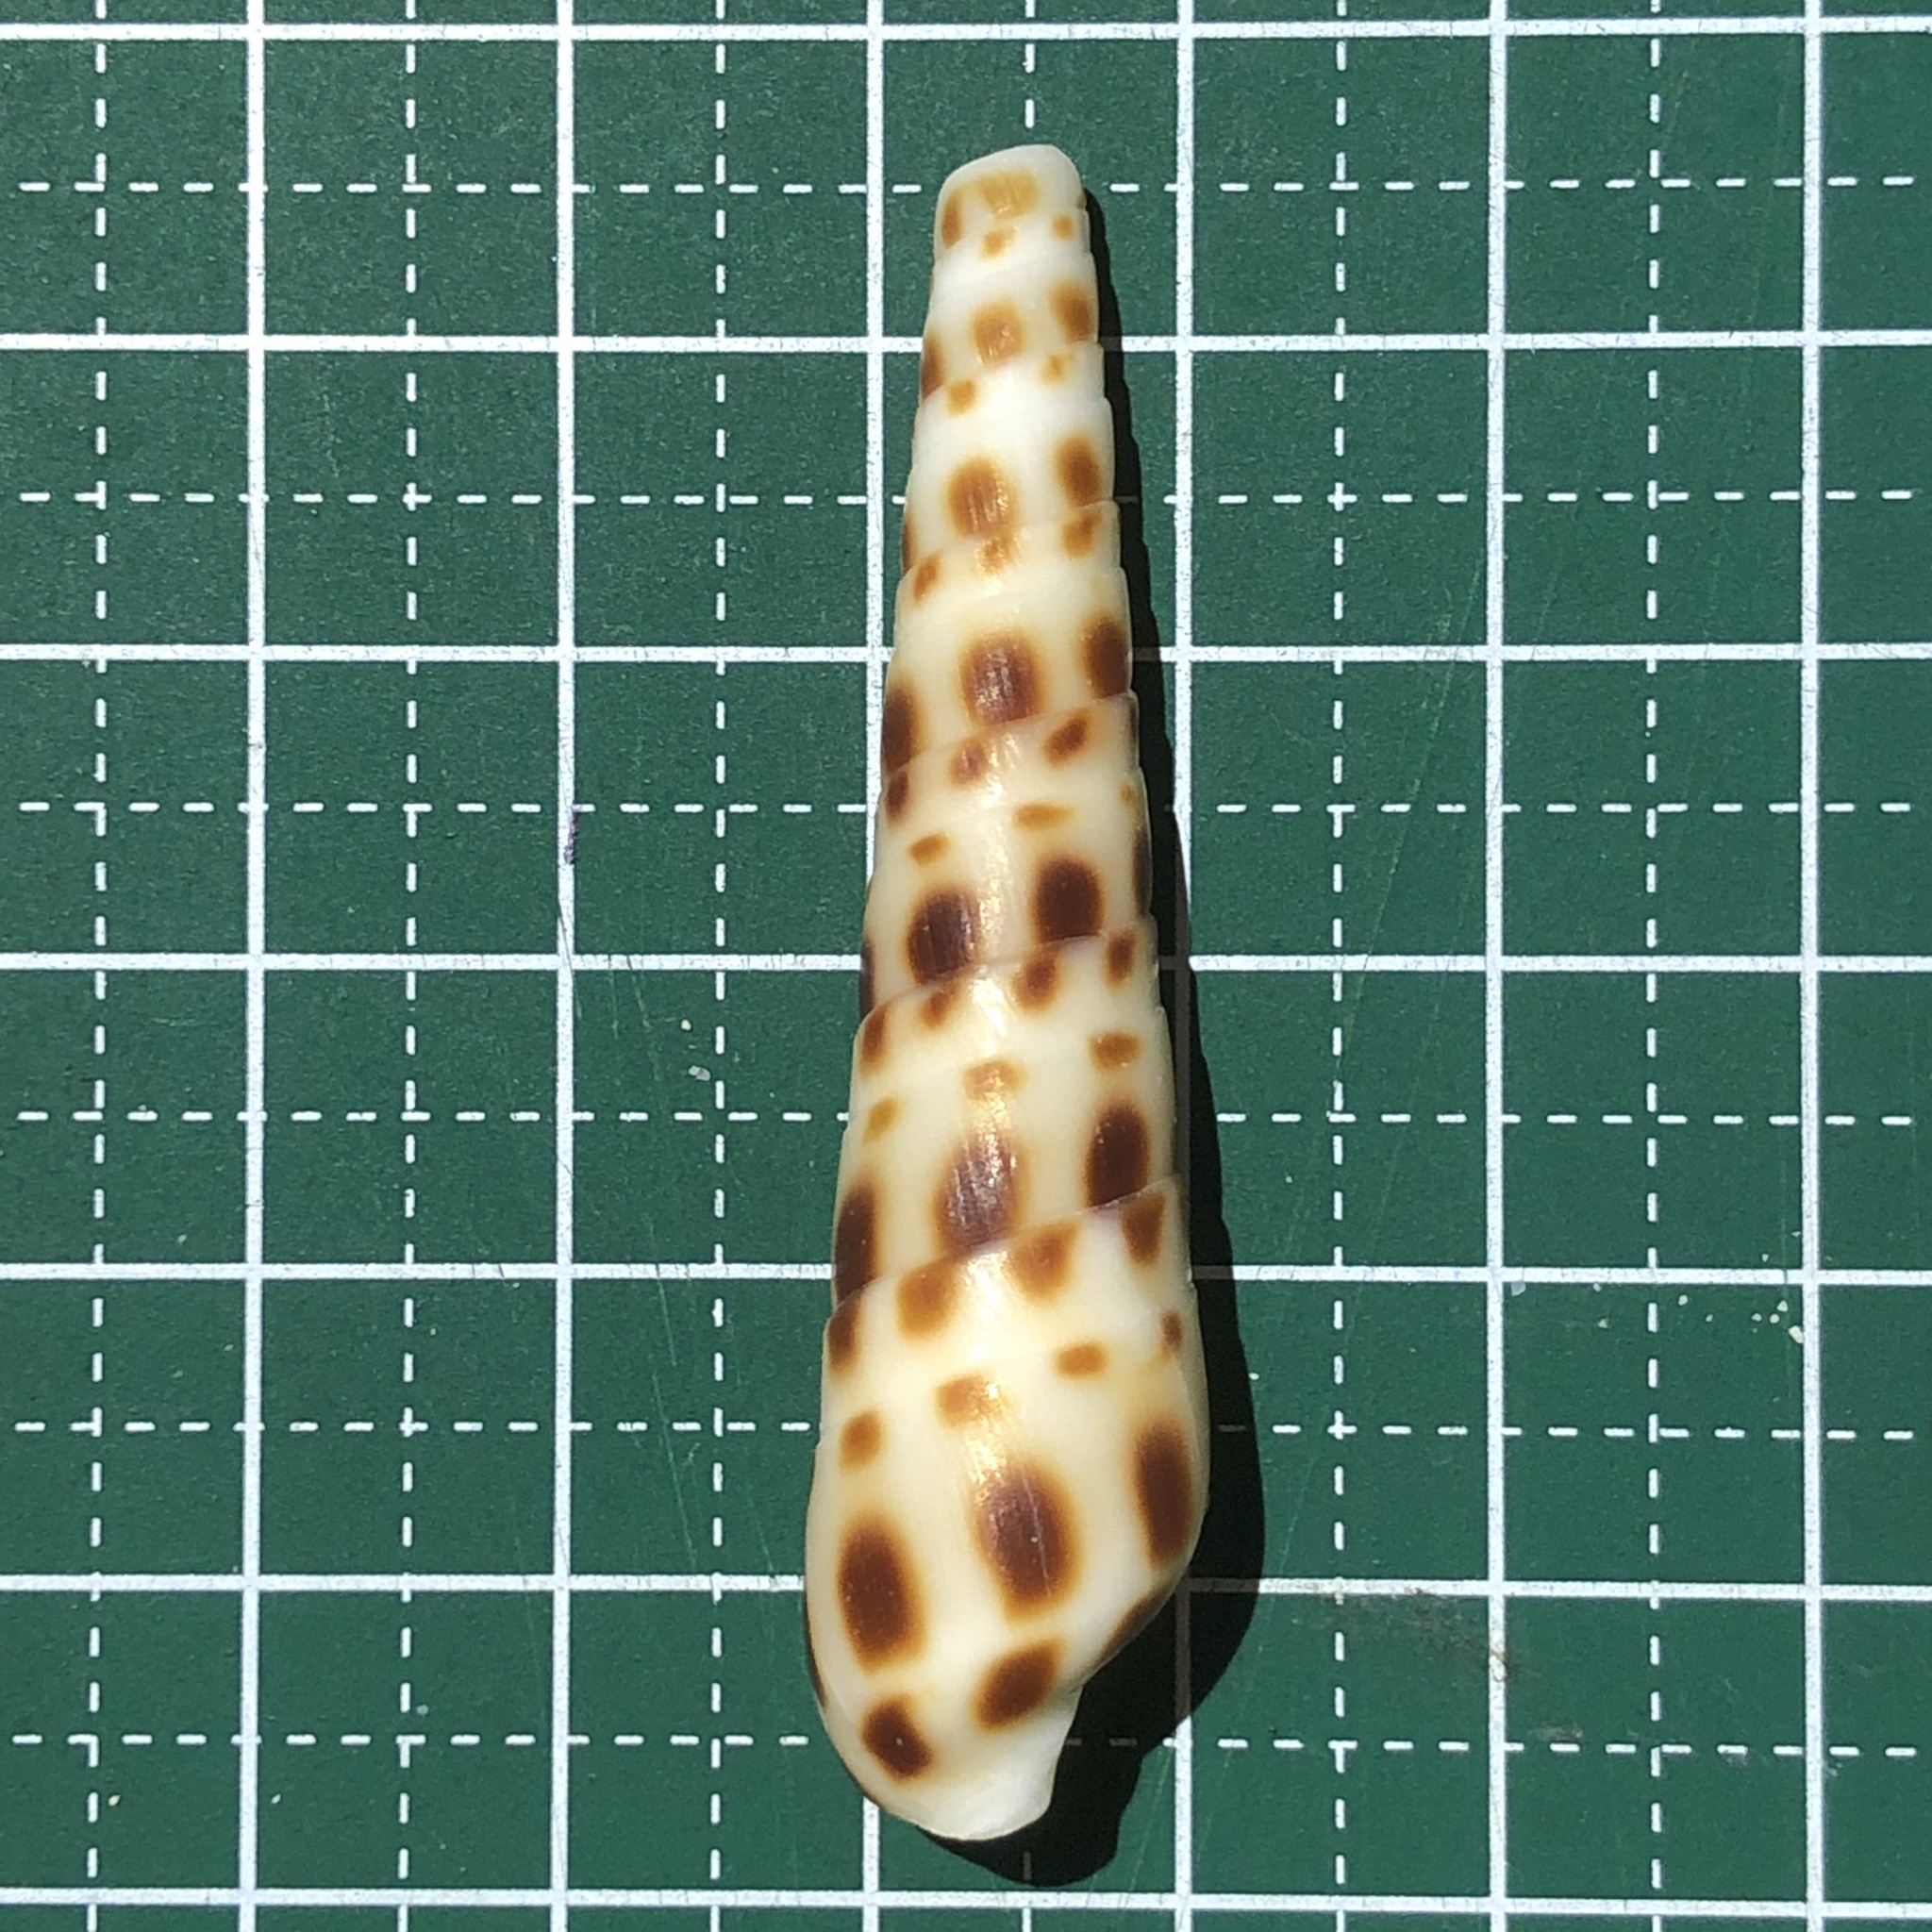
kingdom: Animalia
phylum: Mollusca
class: Gastropoda
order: Neogastropoda
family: Terebridae
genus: Oxymeris
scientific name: Oxymeris areolata
